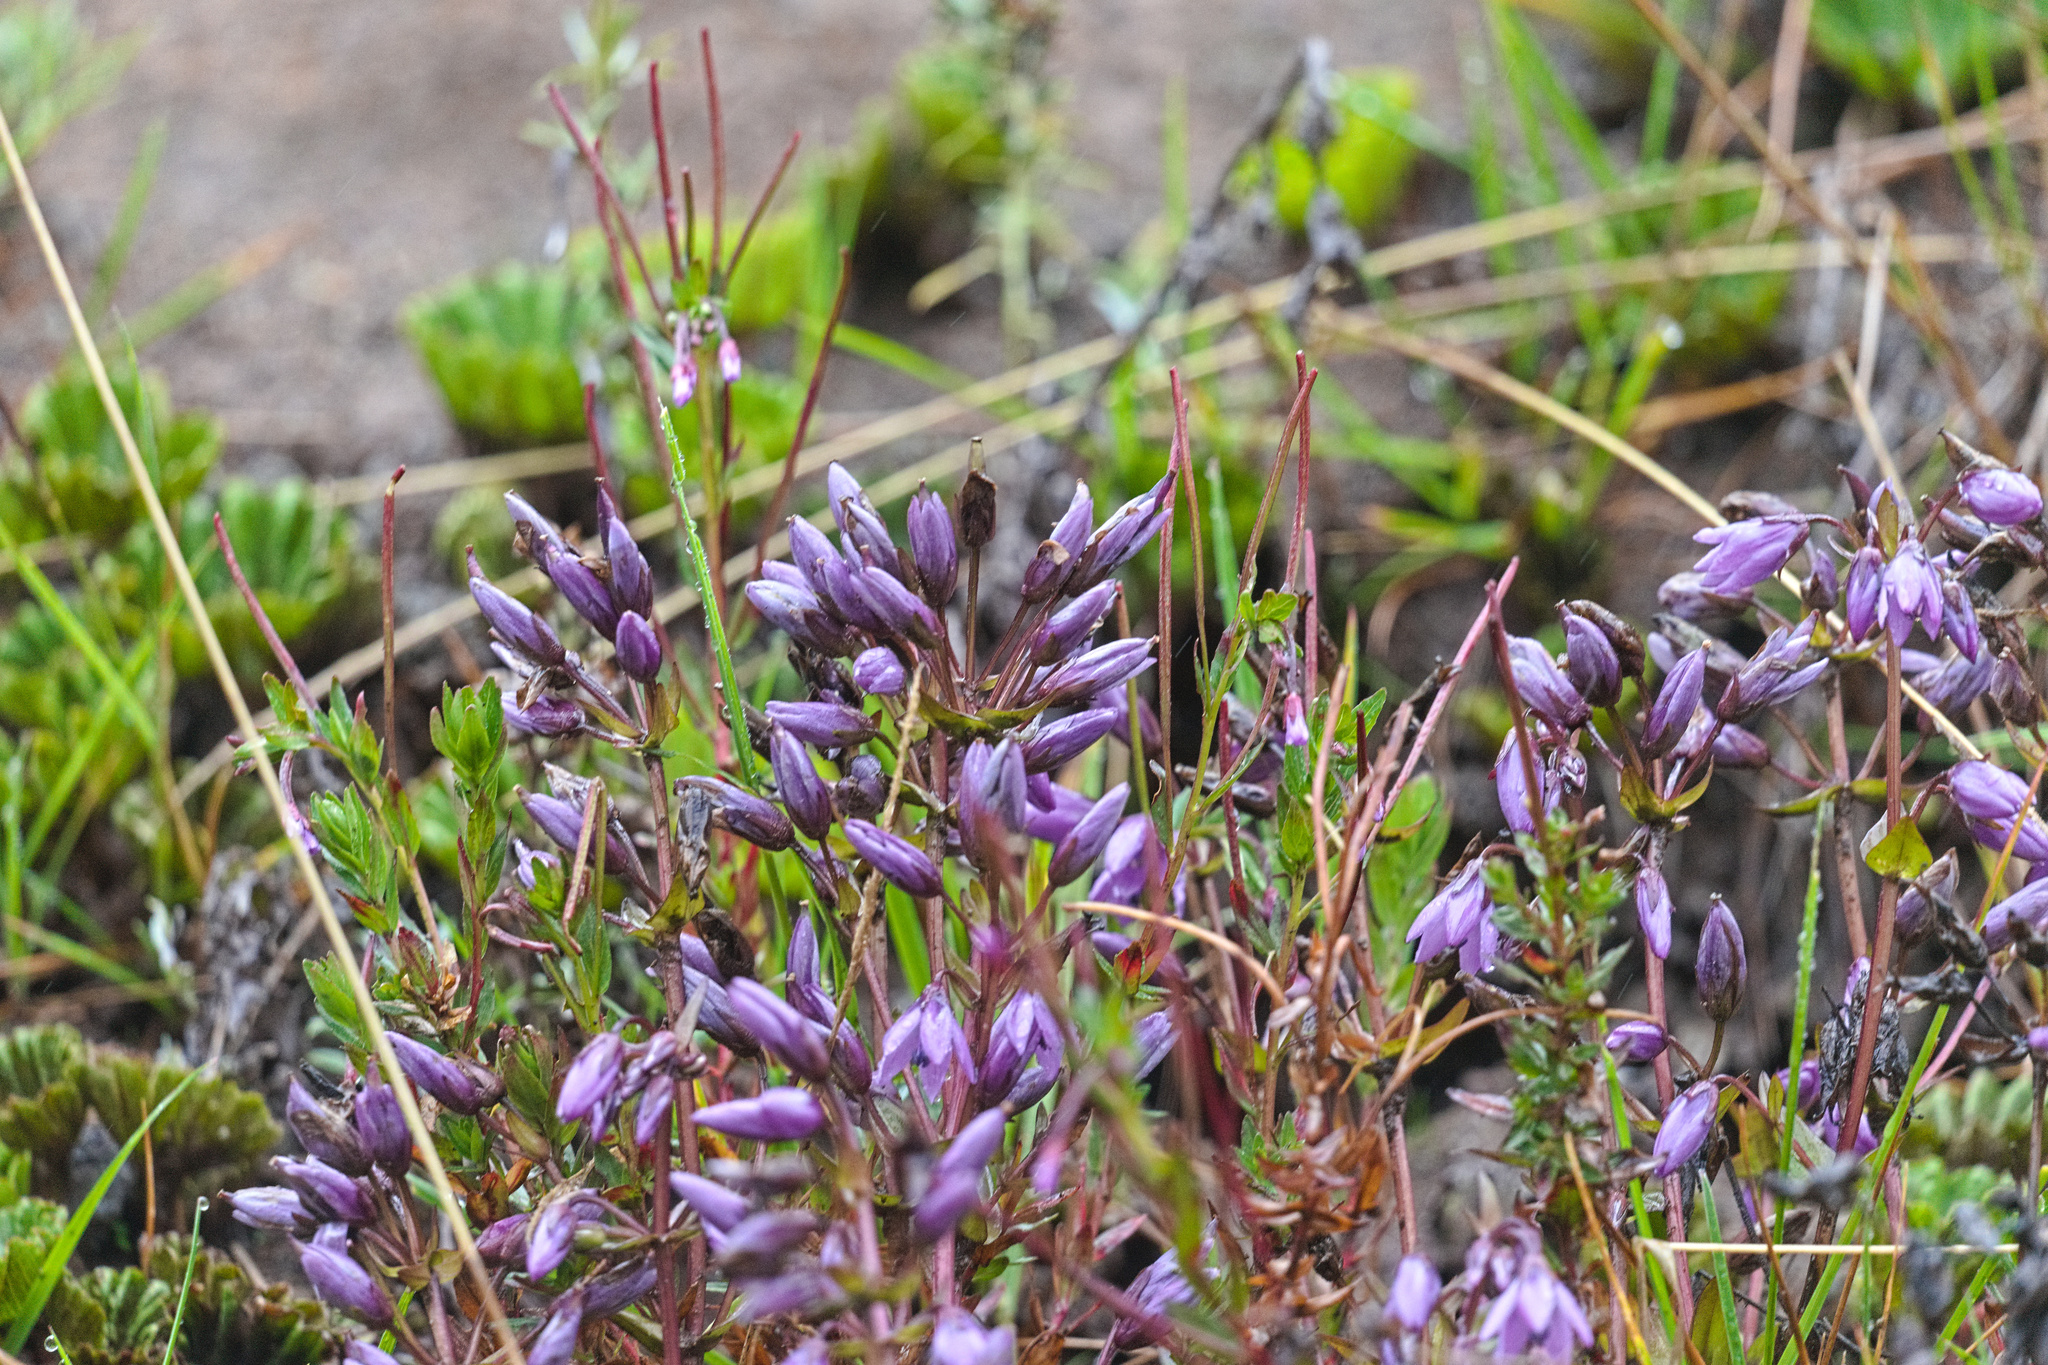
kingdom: Plantae
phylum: Tracheophyta
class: Magnoliopsida
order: Gentianales
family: Gentianaceae
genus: Gentianella
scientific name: Gentianella rapunculoides
